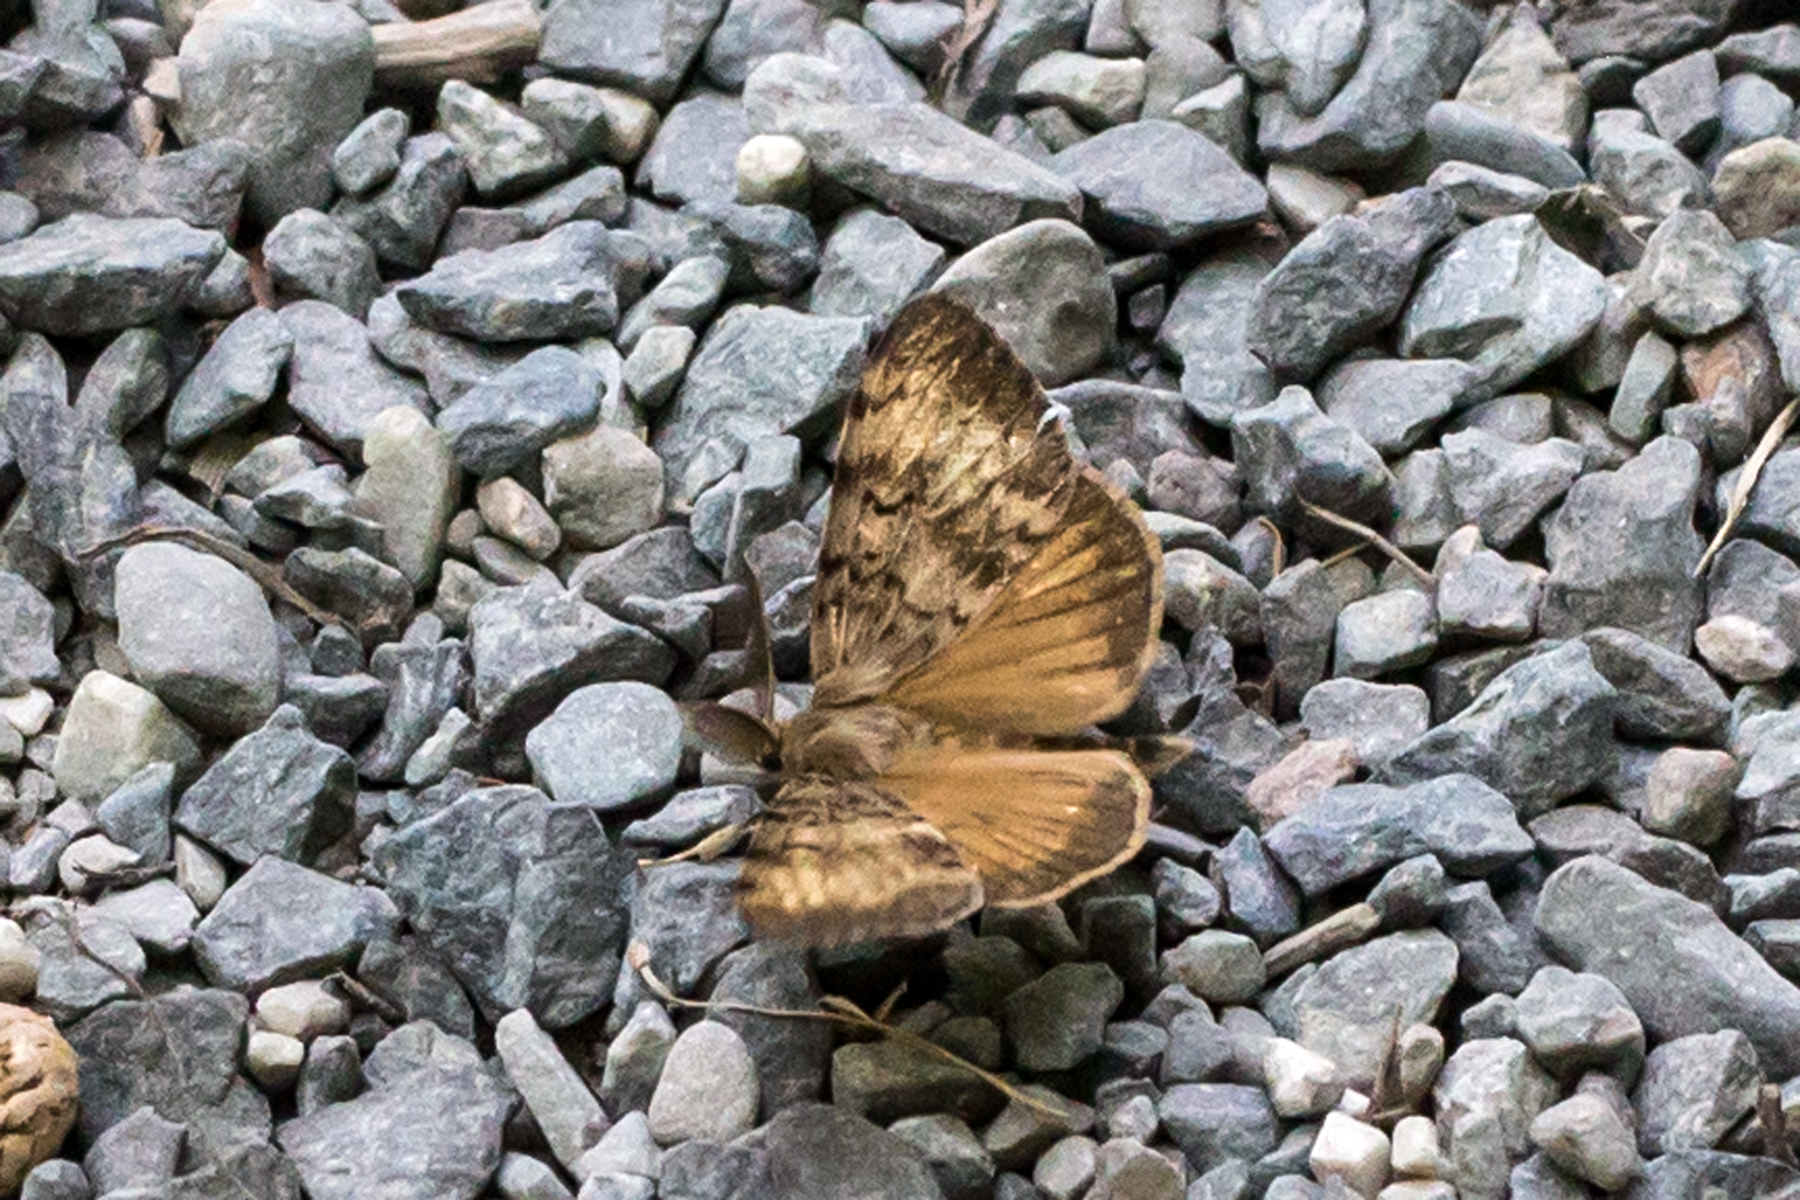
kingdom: Animalia
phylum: Arthropoda
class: Insecta
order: Lepidoptera
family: Erebidae
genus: Lymantria
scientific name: Lymantria dispar
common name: Gypsy moth
